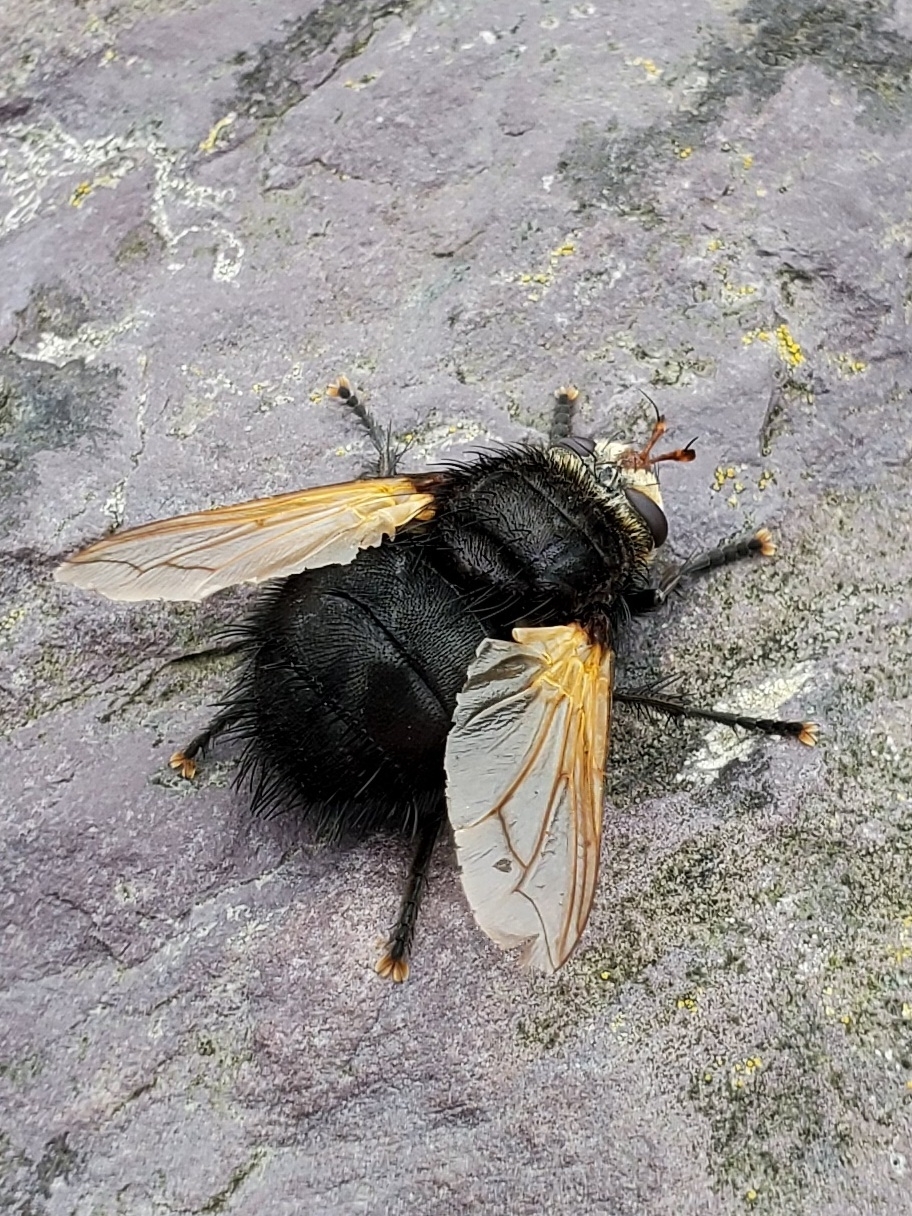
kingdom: Animalia
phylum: Arthropoda
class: Insecta
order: Diptera
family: Tachinidae
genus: Tachina
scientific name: Tachina grossa
